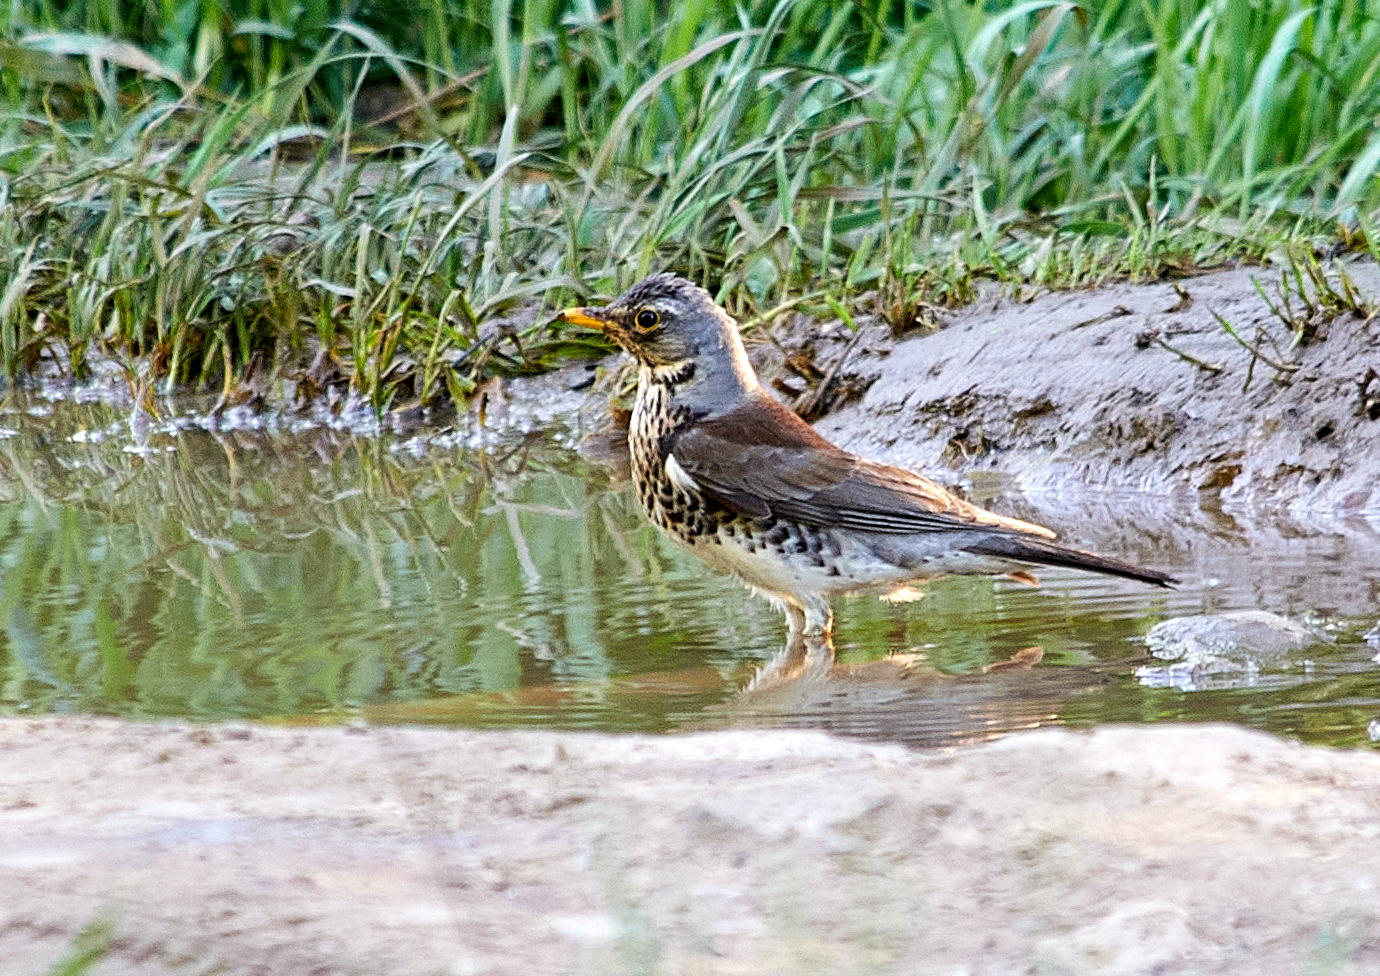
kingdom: Animalia
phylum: Chordata
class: Aves
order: Passeriformes
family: Turdidae
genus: Turdus
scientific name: Turdus pilaris
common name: Fieldfare
